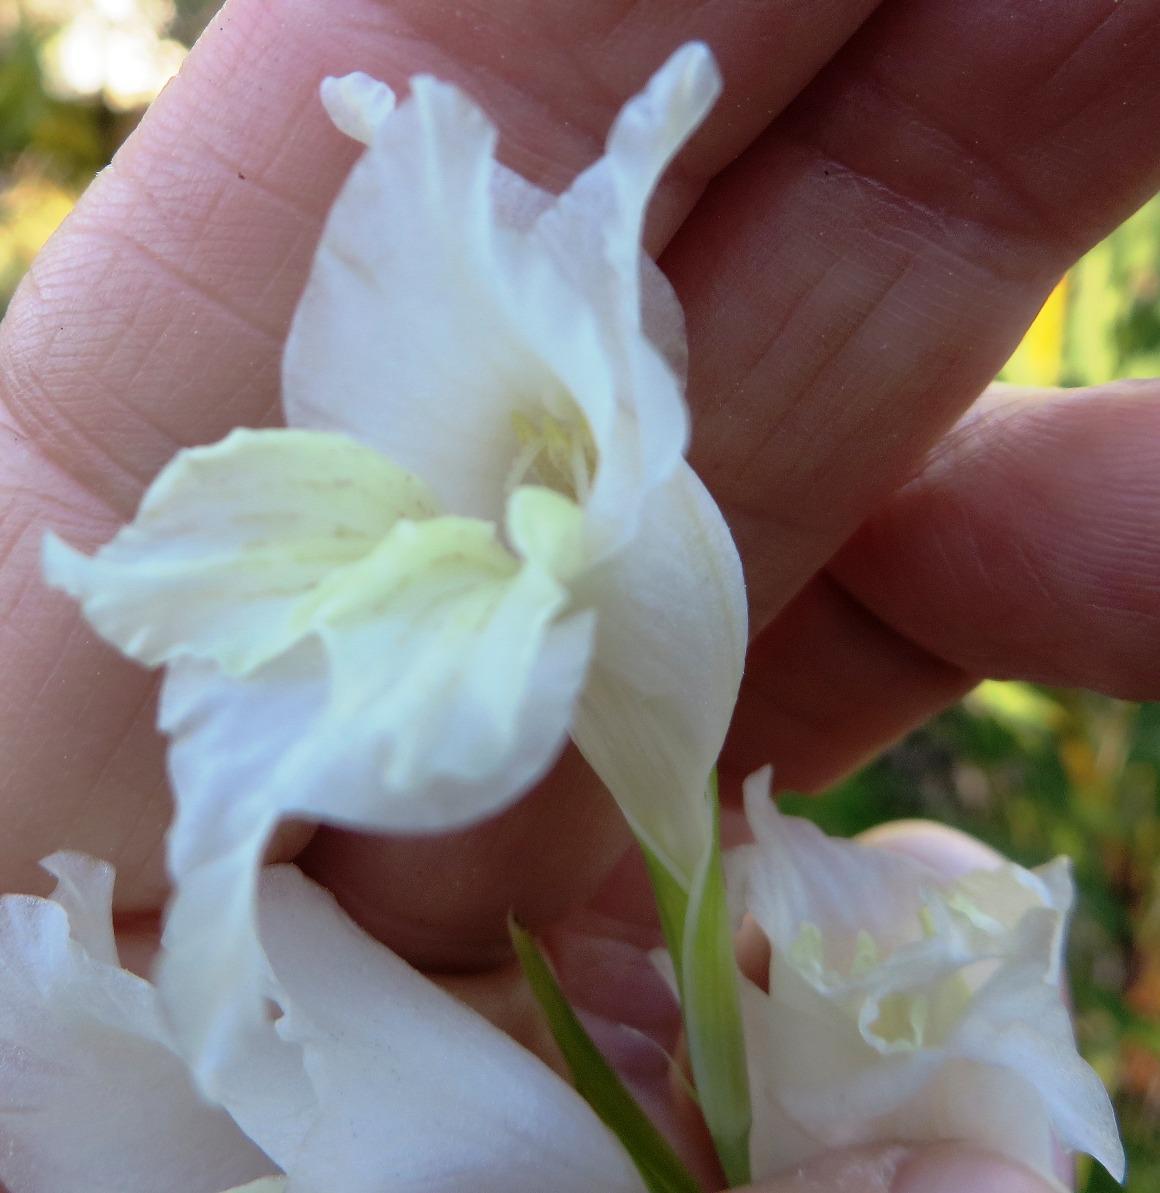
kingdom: Plantae
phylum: Tracheophyta
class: Liliopsida
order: Asparagales
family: Iridaceae
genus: Gladiolus
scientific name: Gladiolus gracilis
